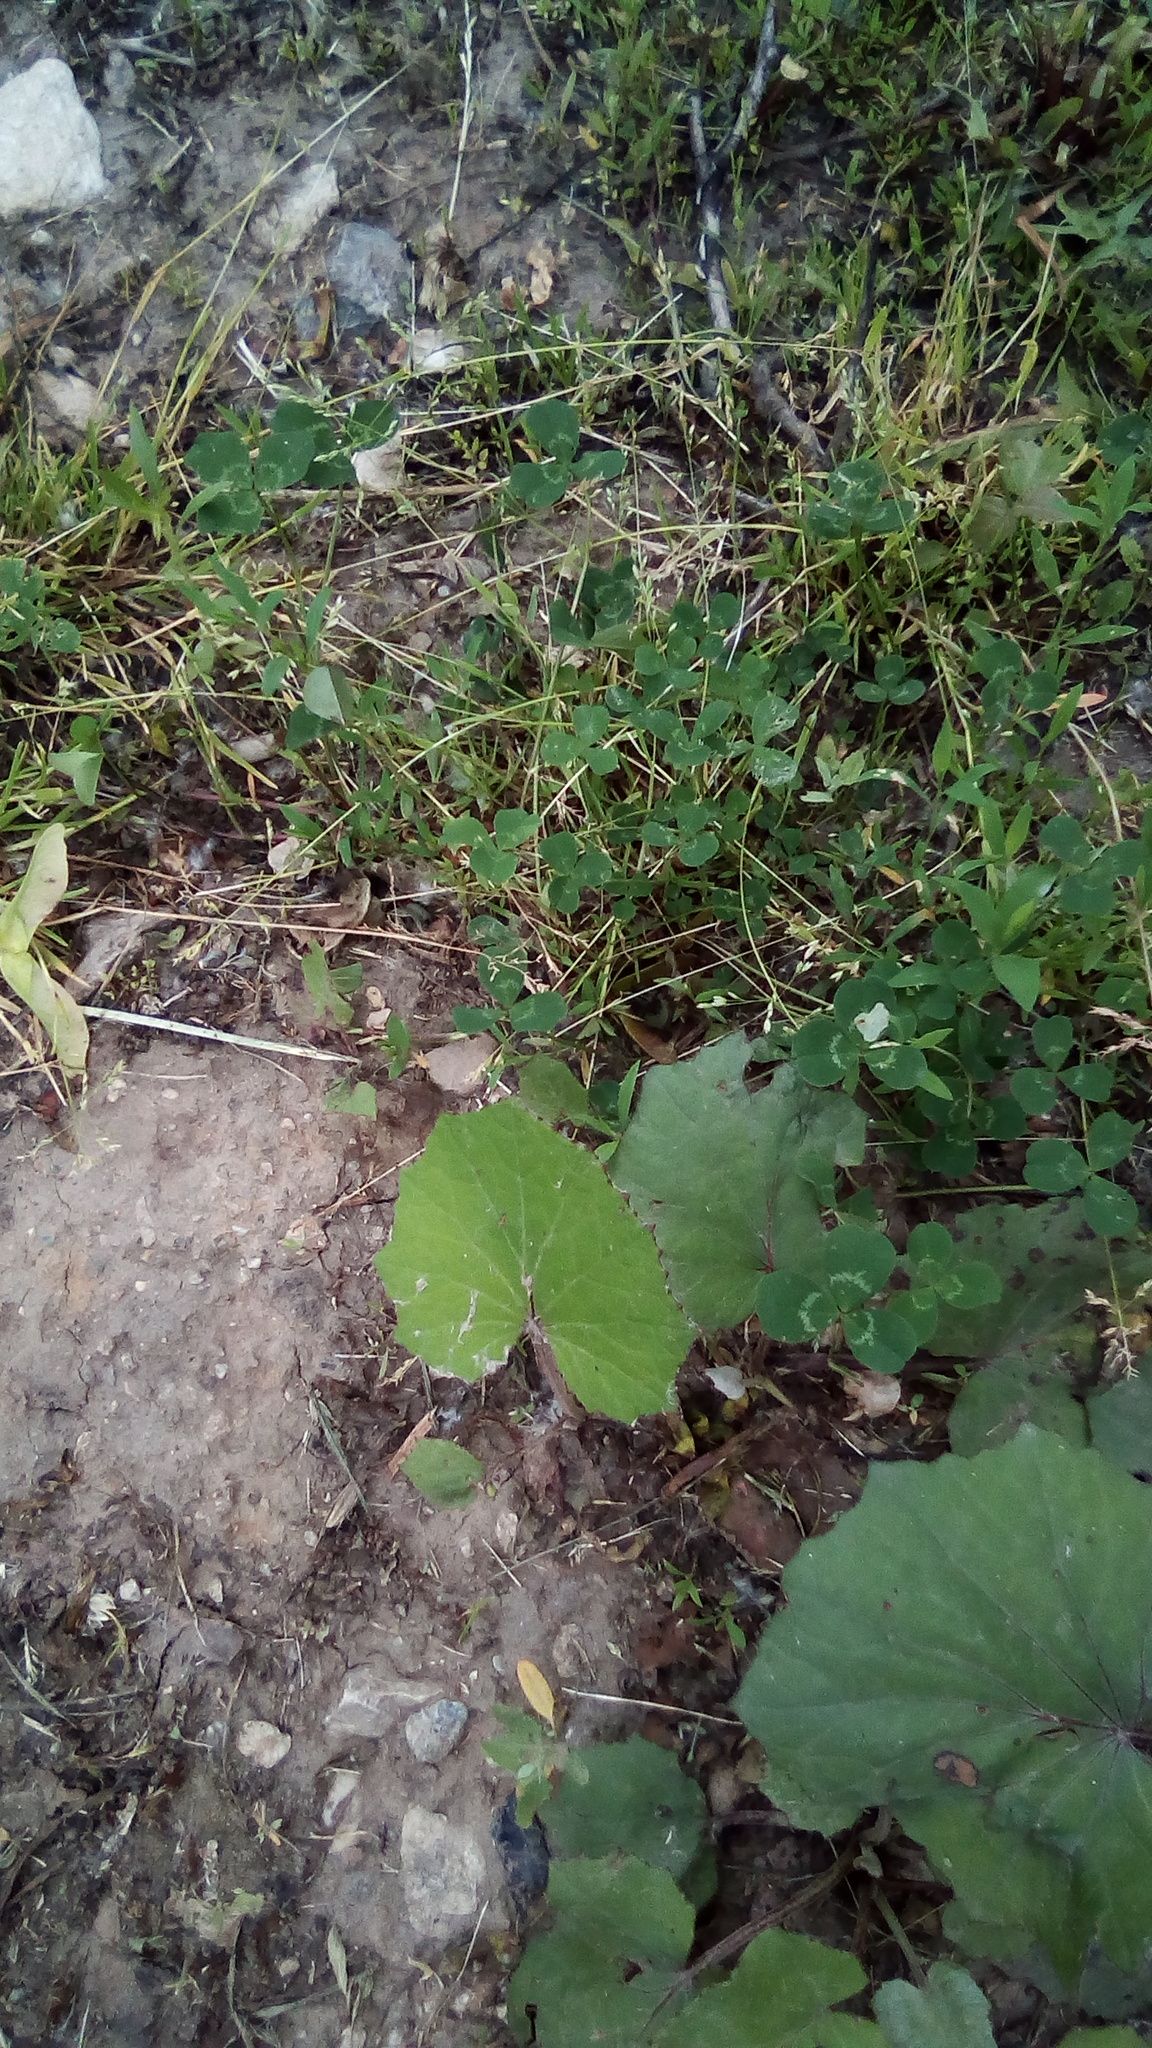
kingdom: Plantae
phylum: Tracheophyta
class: Magnoliopsida
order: Asterales
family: Asteraceae
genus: Tussilago
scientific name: Tussilago farfara
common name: Coltsfoot
